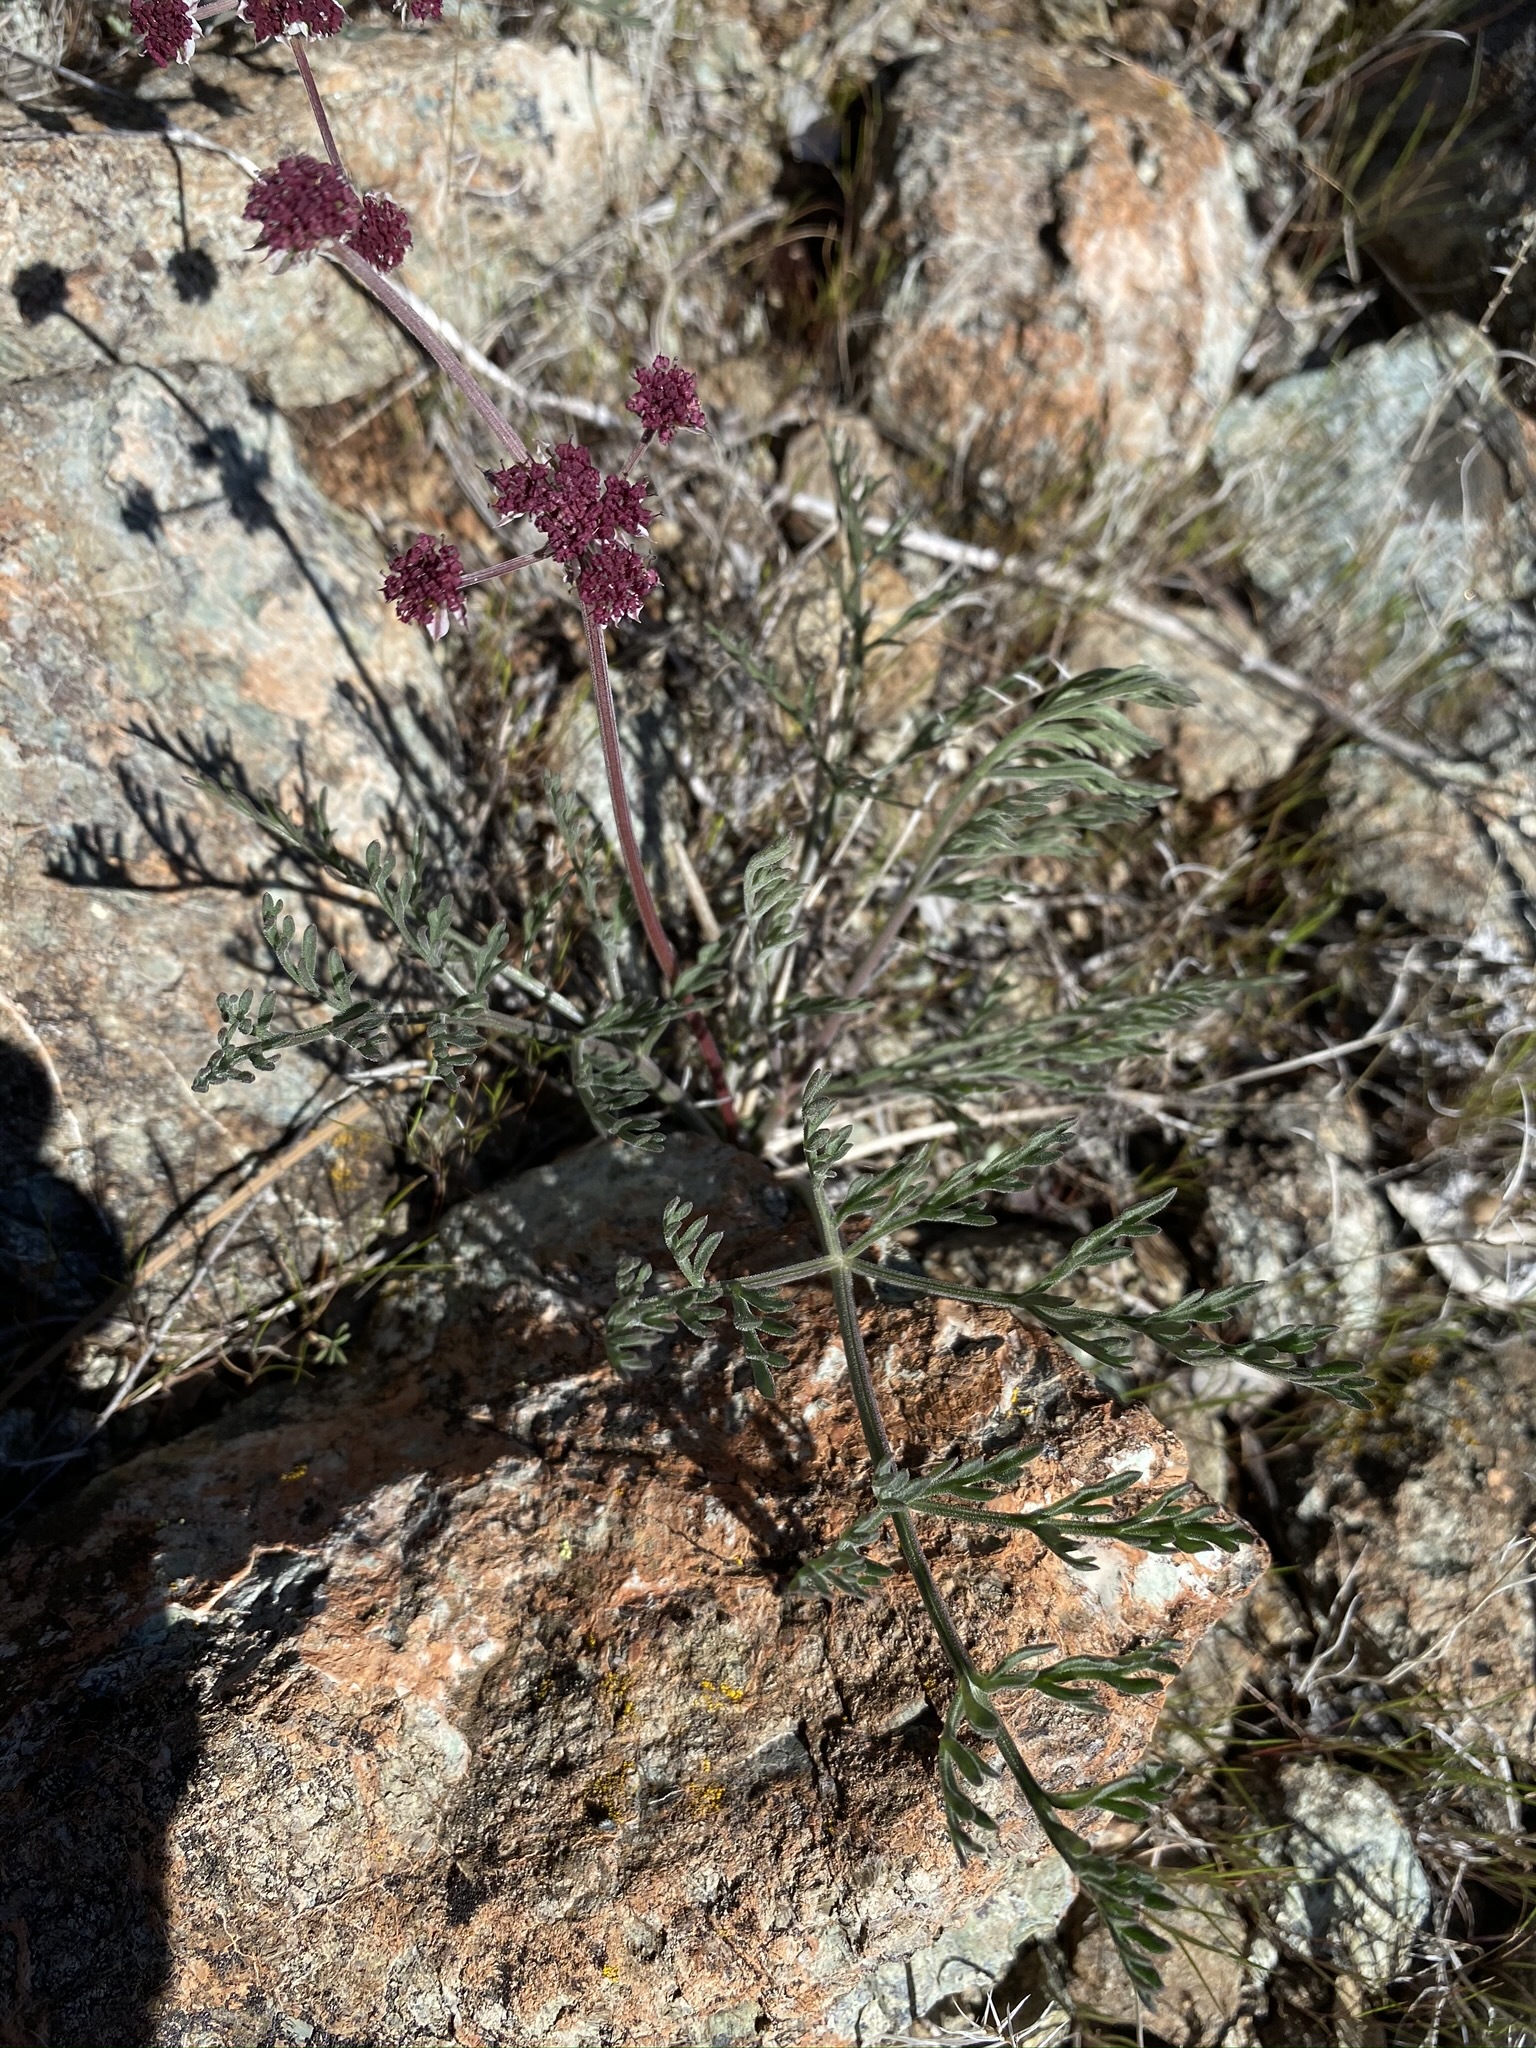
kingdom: Plantae
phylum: Tracheophyta
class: Magnoliopsida
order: Apiales
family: Apiaceae
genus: Lomatium
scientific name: Lomatium hooveri
